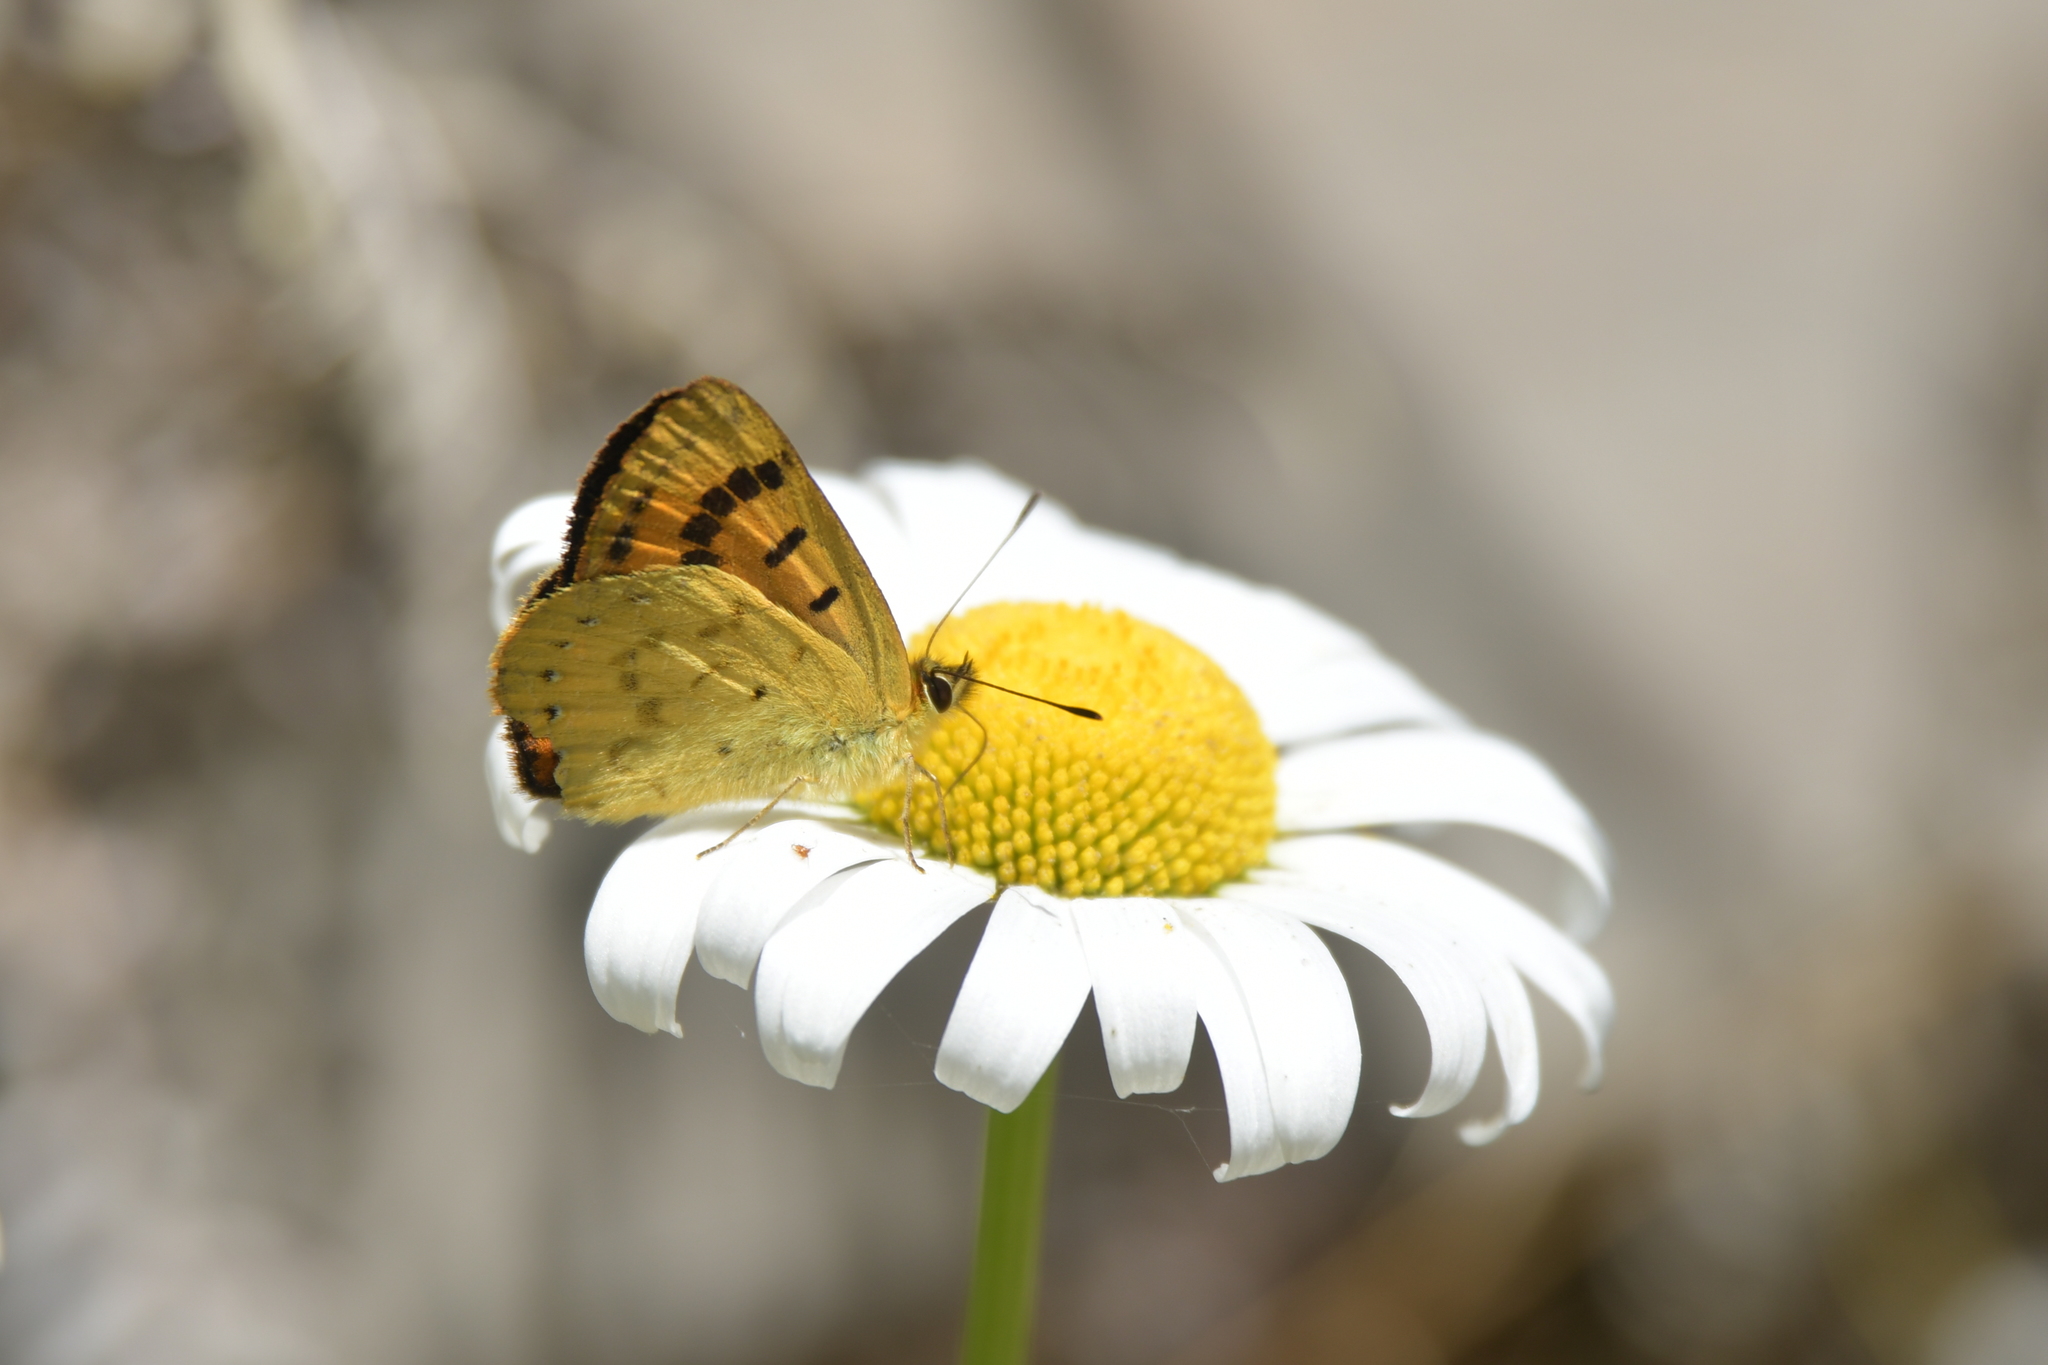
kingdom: Animalia
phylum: Arthropoda
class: Insecta
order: Lepidoptera
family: Lycaenidae
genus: Lycaena
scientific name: Lycaena salustius
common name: North island coastal copper
